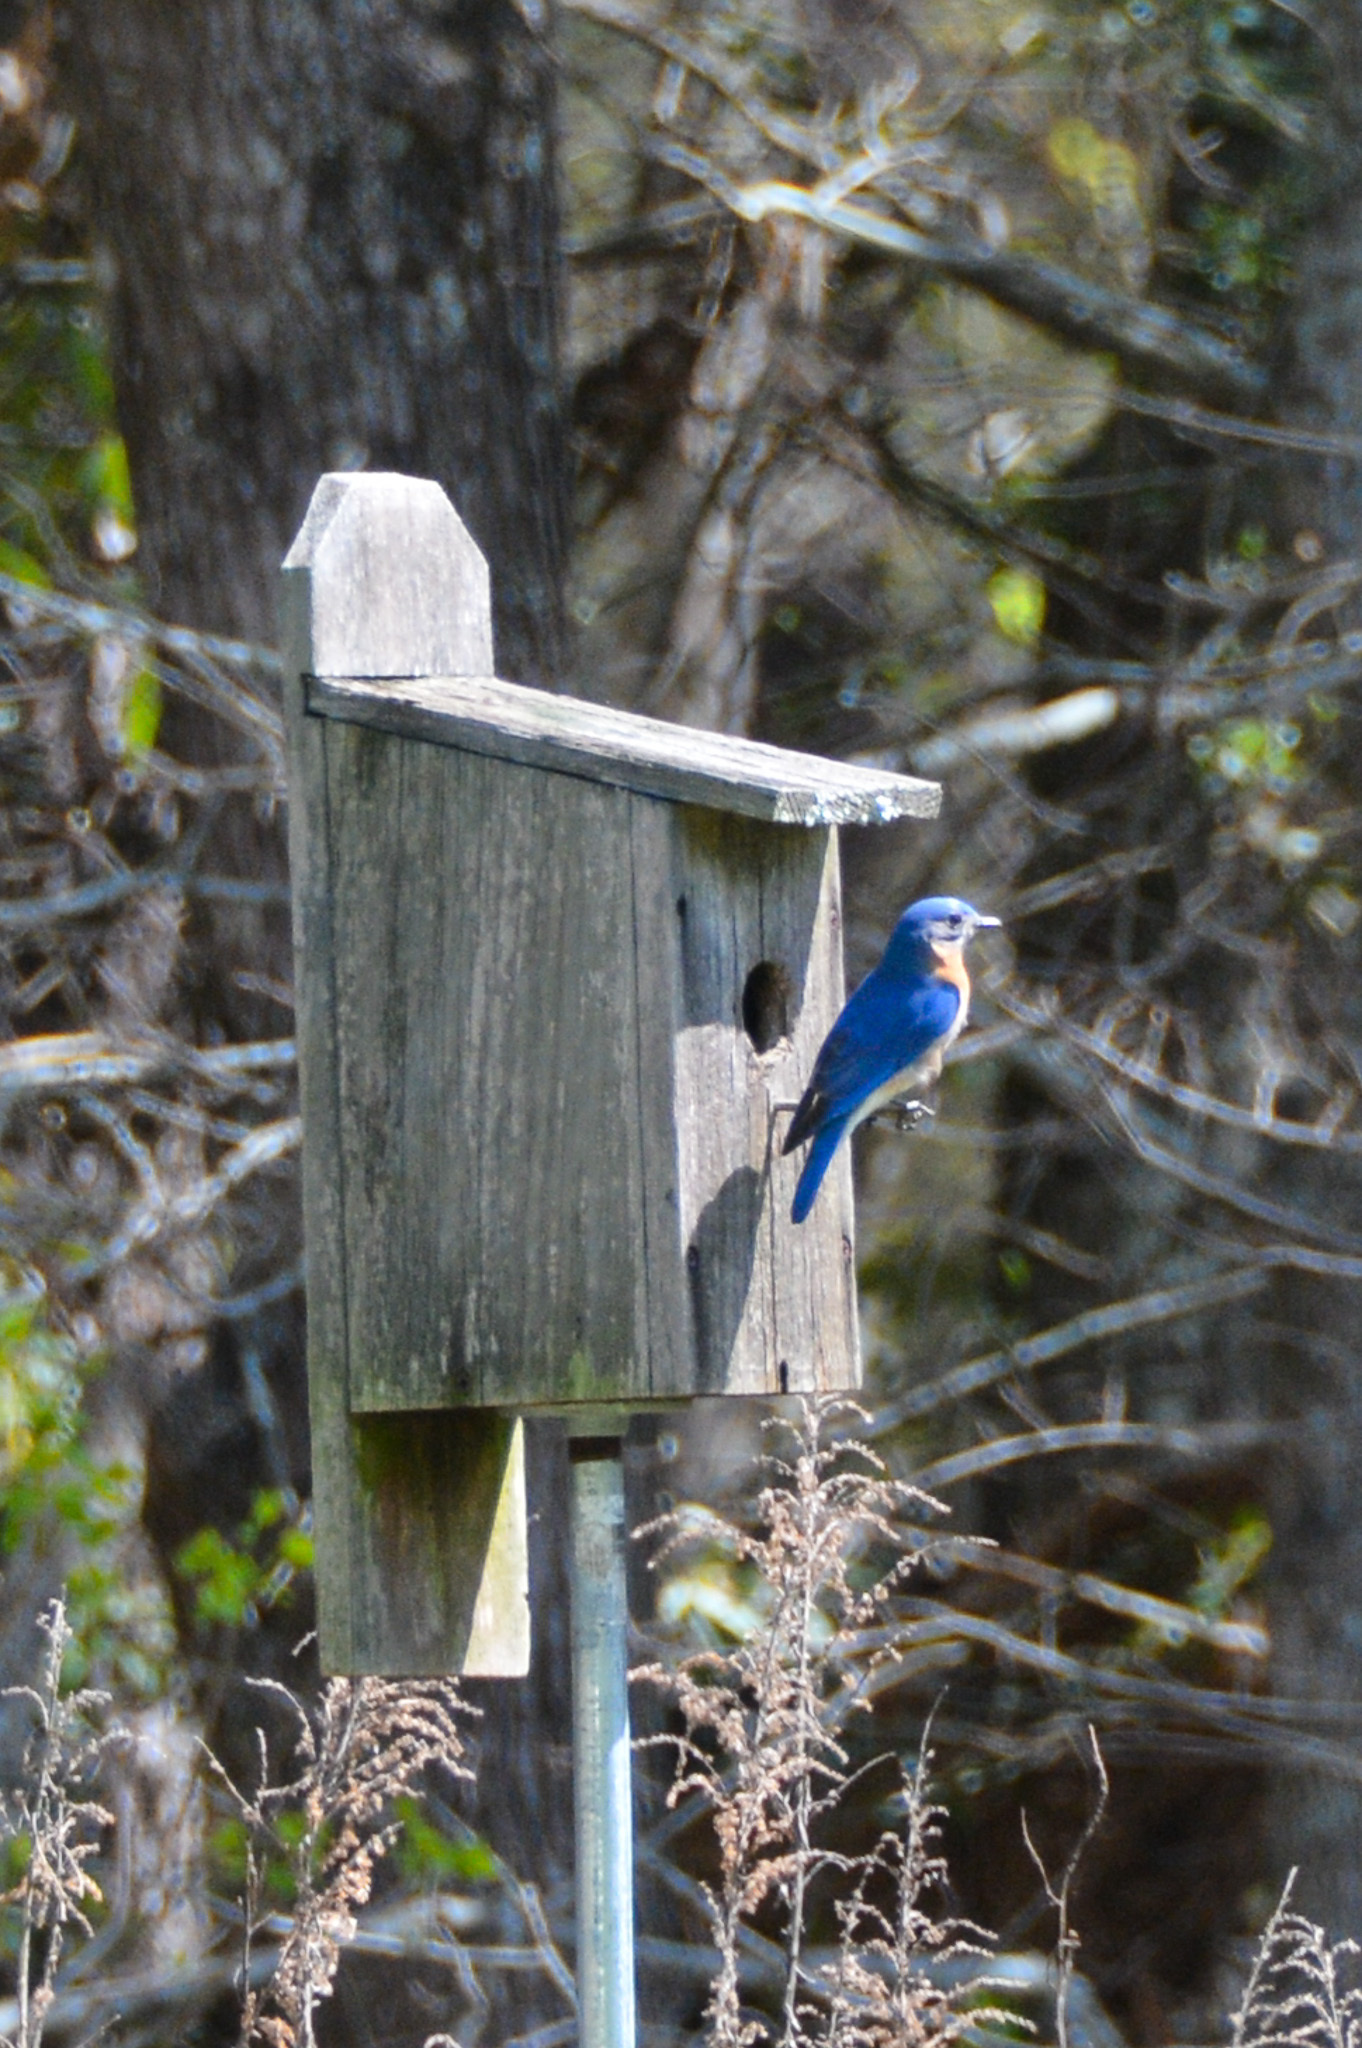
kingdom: Animalia
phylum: Chordata
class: Aves
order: Passeriformes
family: Turdidae
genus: Sialia
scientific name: Sialia sialis
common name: Eastern bluebird
